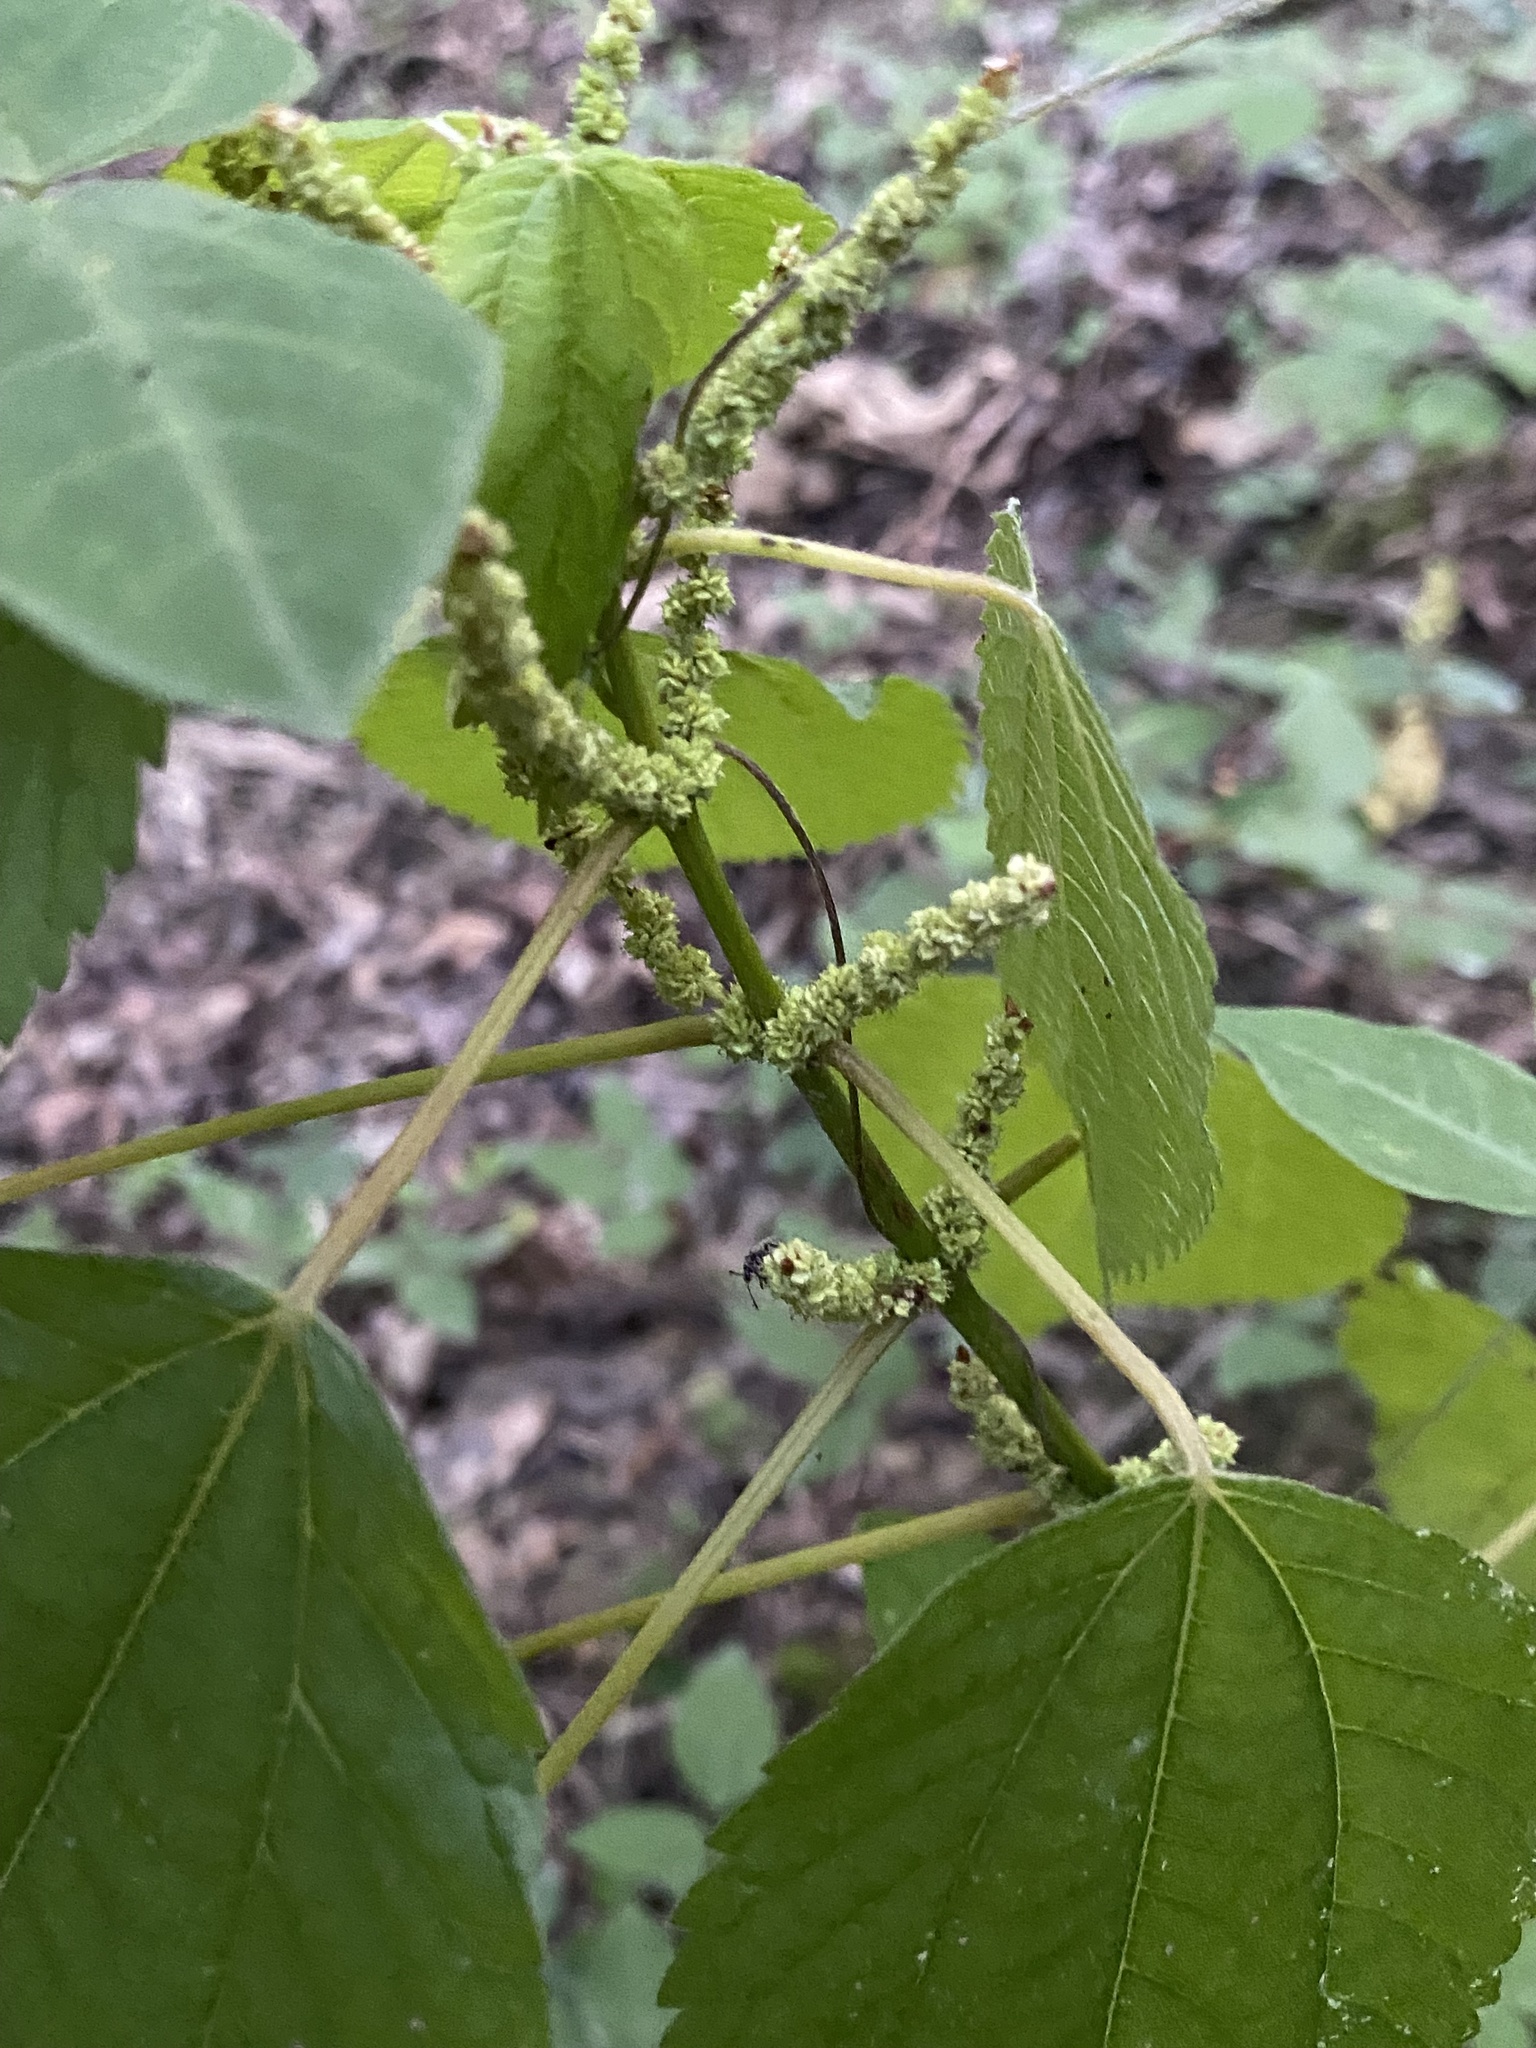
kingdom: Plantae
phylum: Tracheophyta
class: Magnoliopsida
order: Rosales
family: Urticaceae
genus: Boehmeria
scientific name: Boehmeria cylindrica
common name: Bog-hemp
